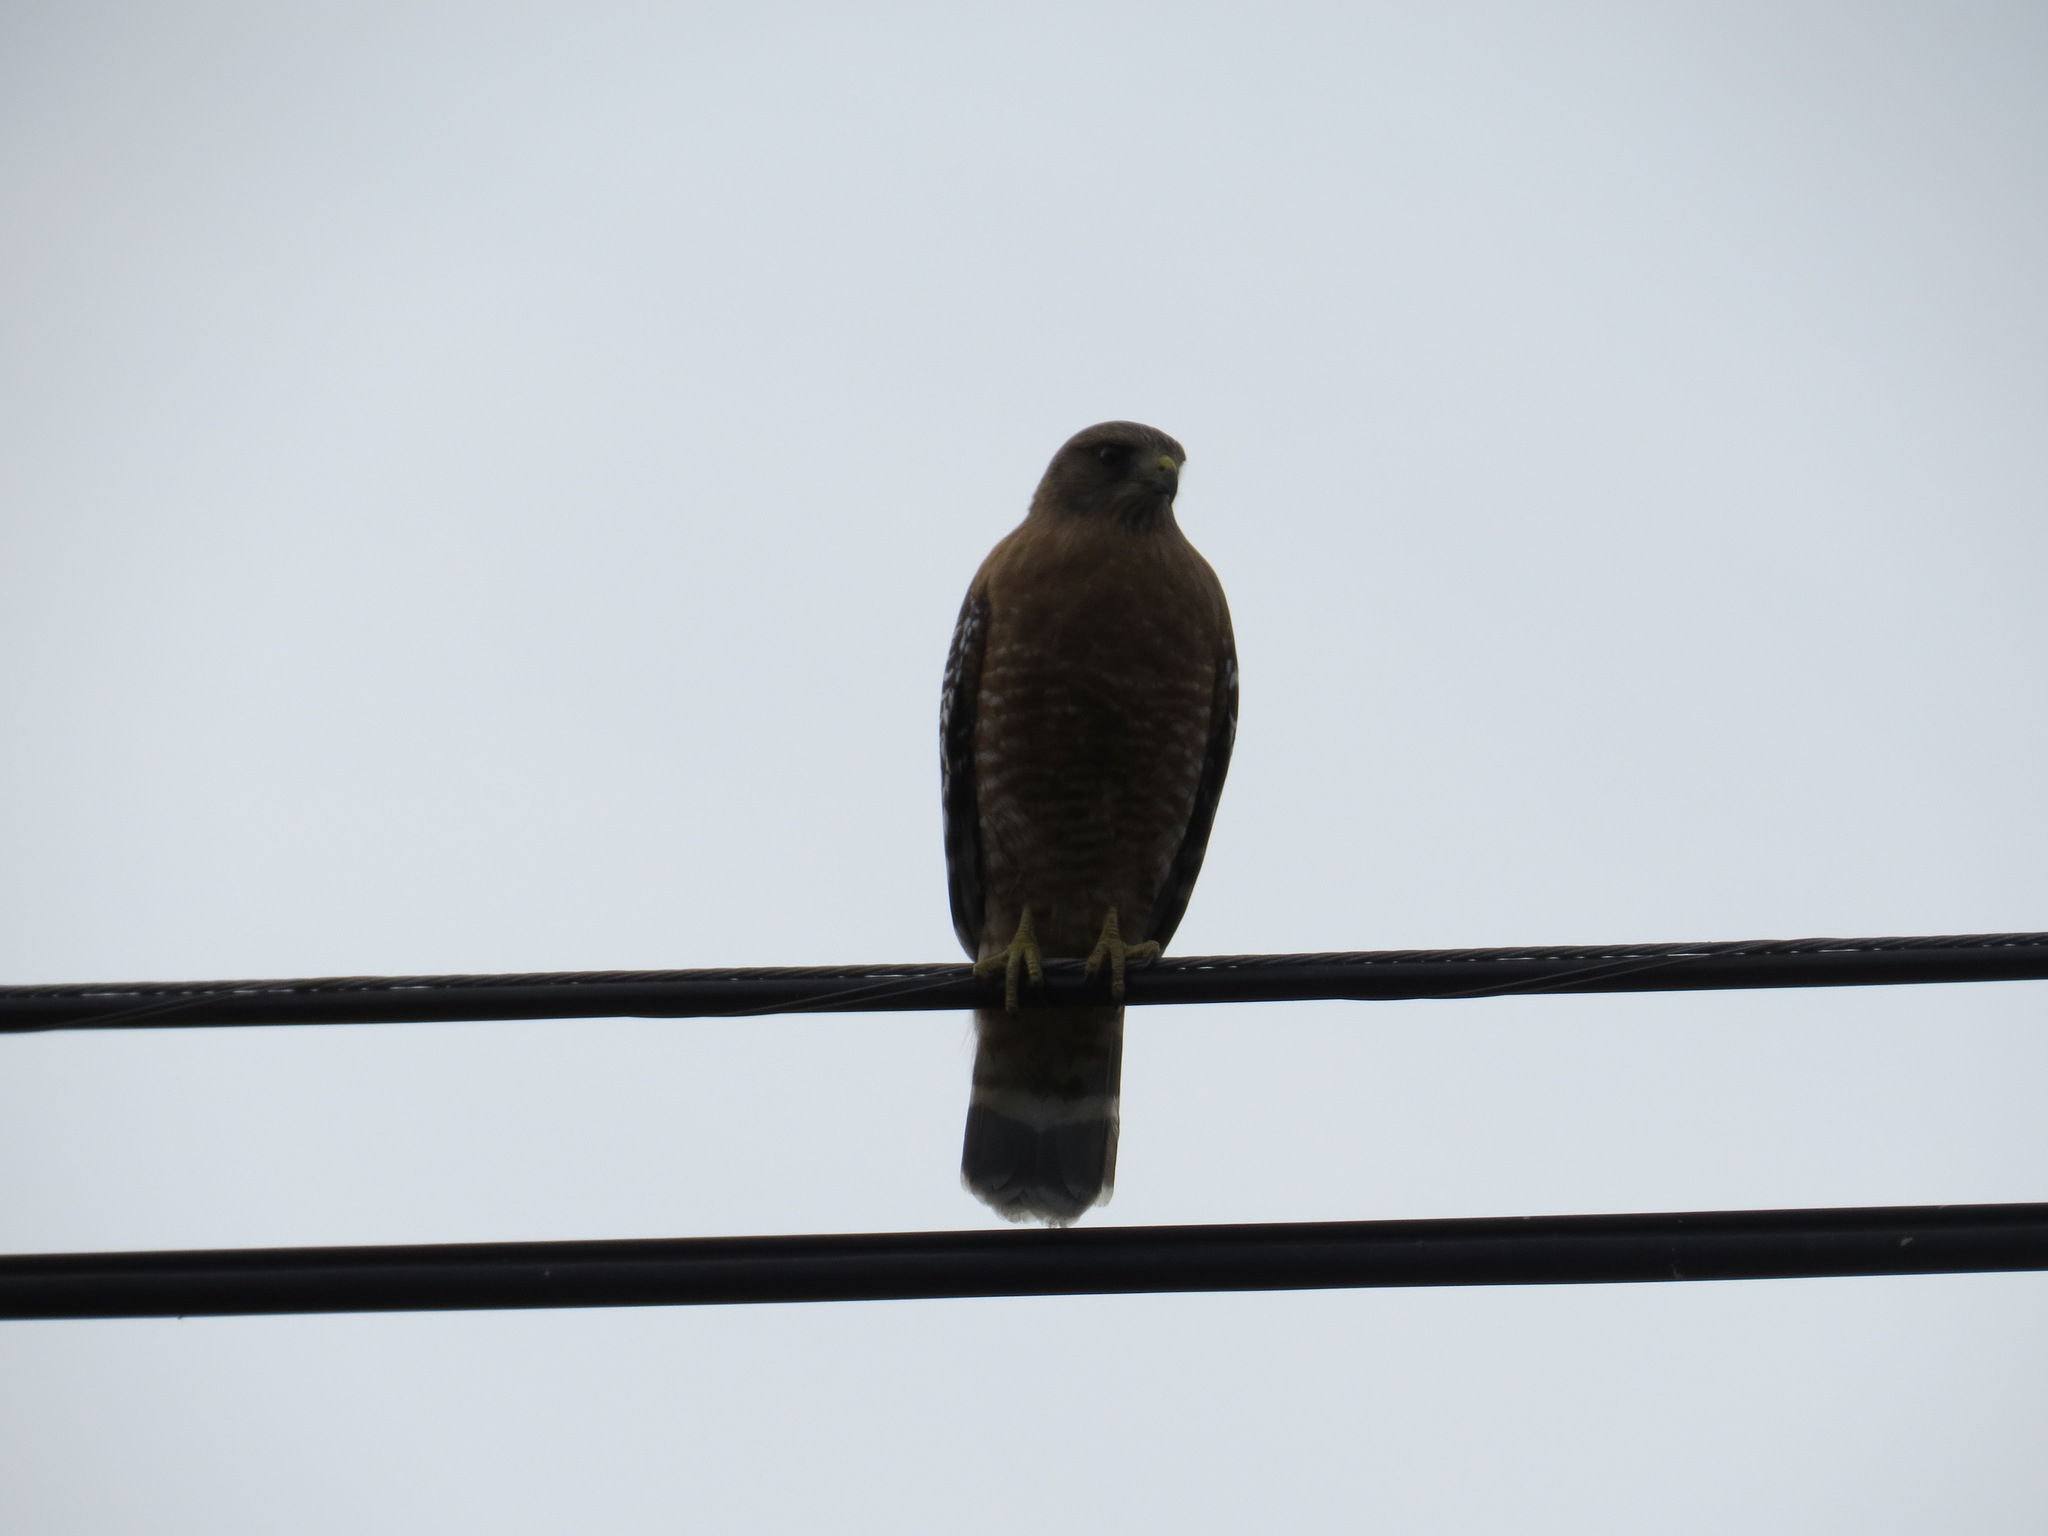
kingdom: Animalia
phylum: Chordata
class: Aves
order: Accipitriformes
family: Accipitridae
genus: Buteo
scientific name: Buteo lineatus
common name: Red-shouldered hawk
